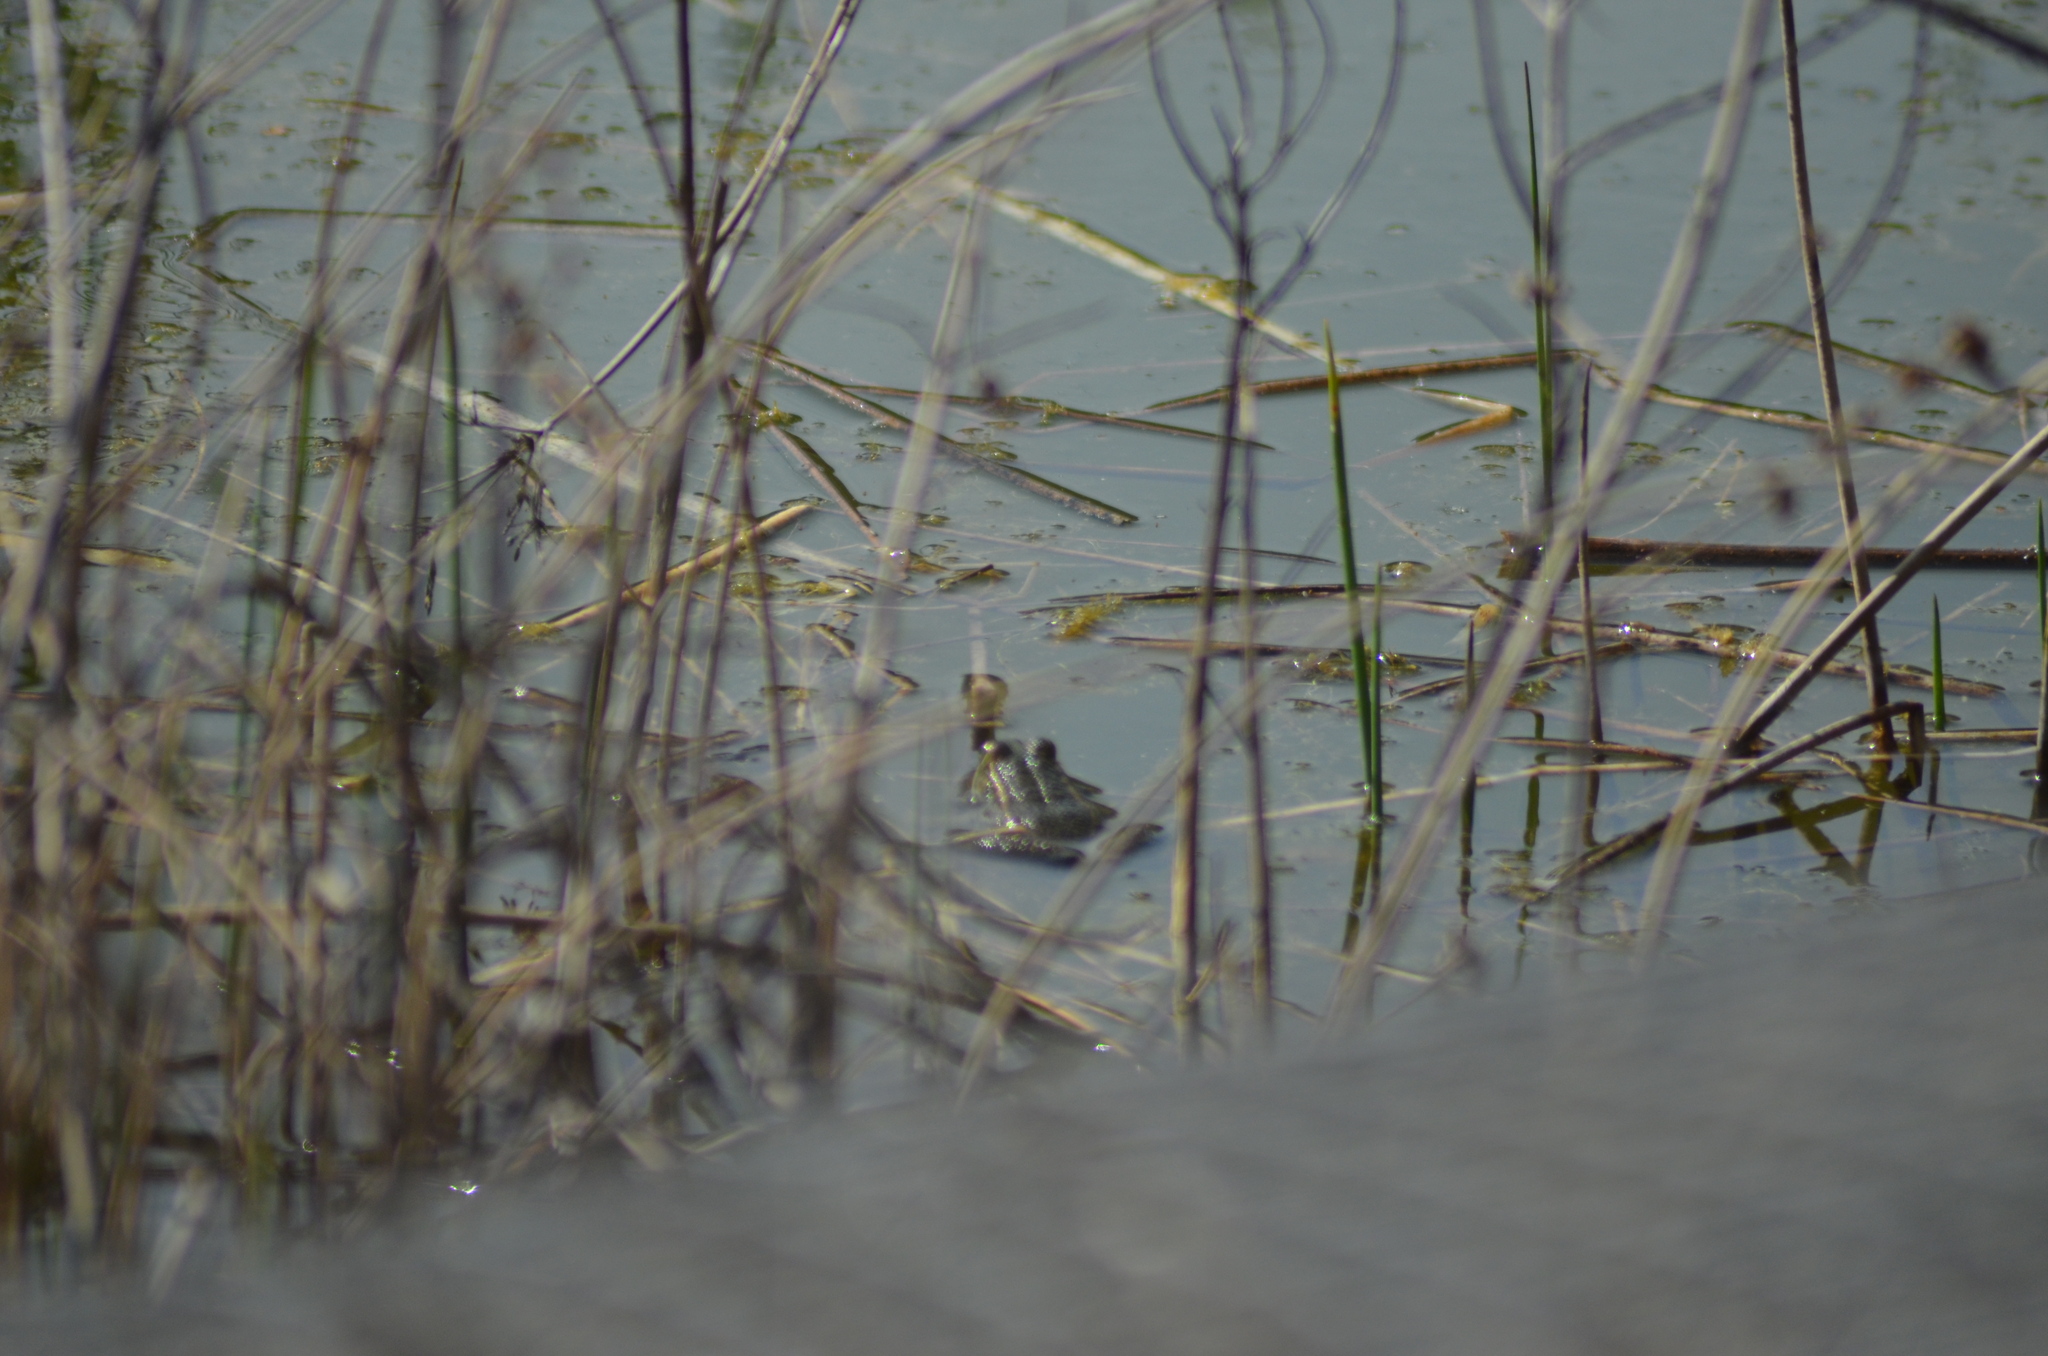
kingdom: Animalia
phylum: Chordata
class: Amphibia
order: Anura
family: Ranidae
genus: Pelophylax
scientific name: Pelophylax
